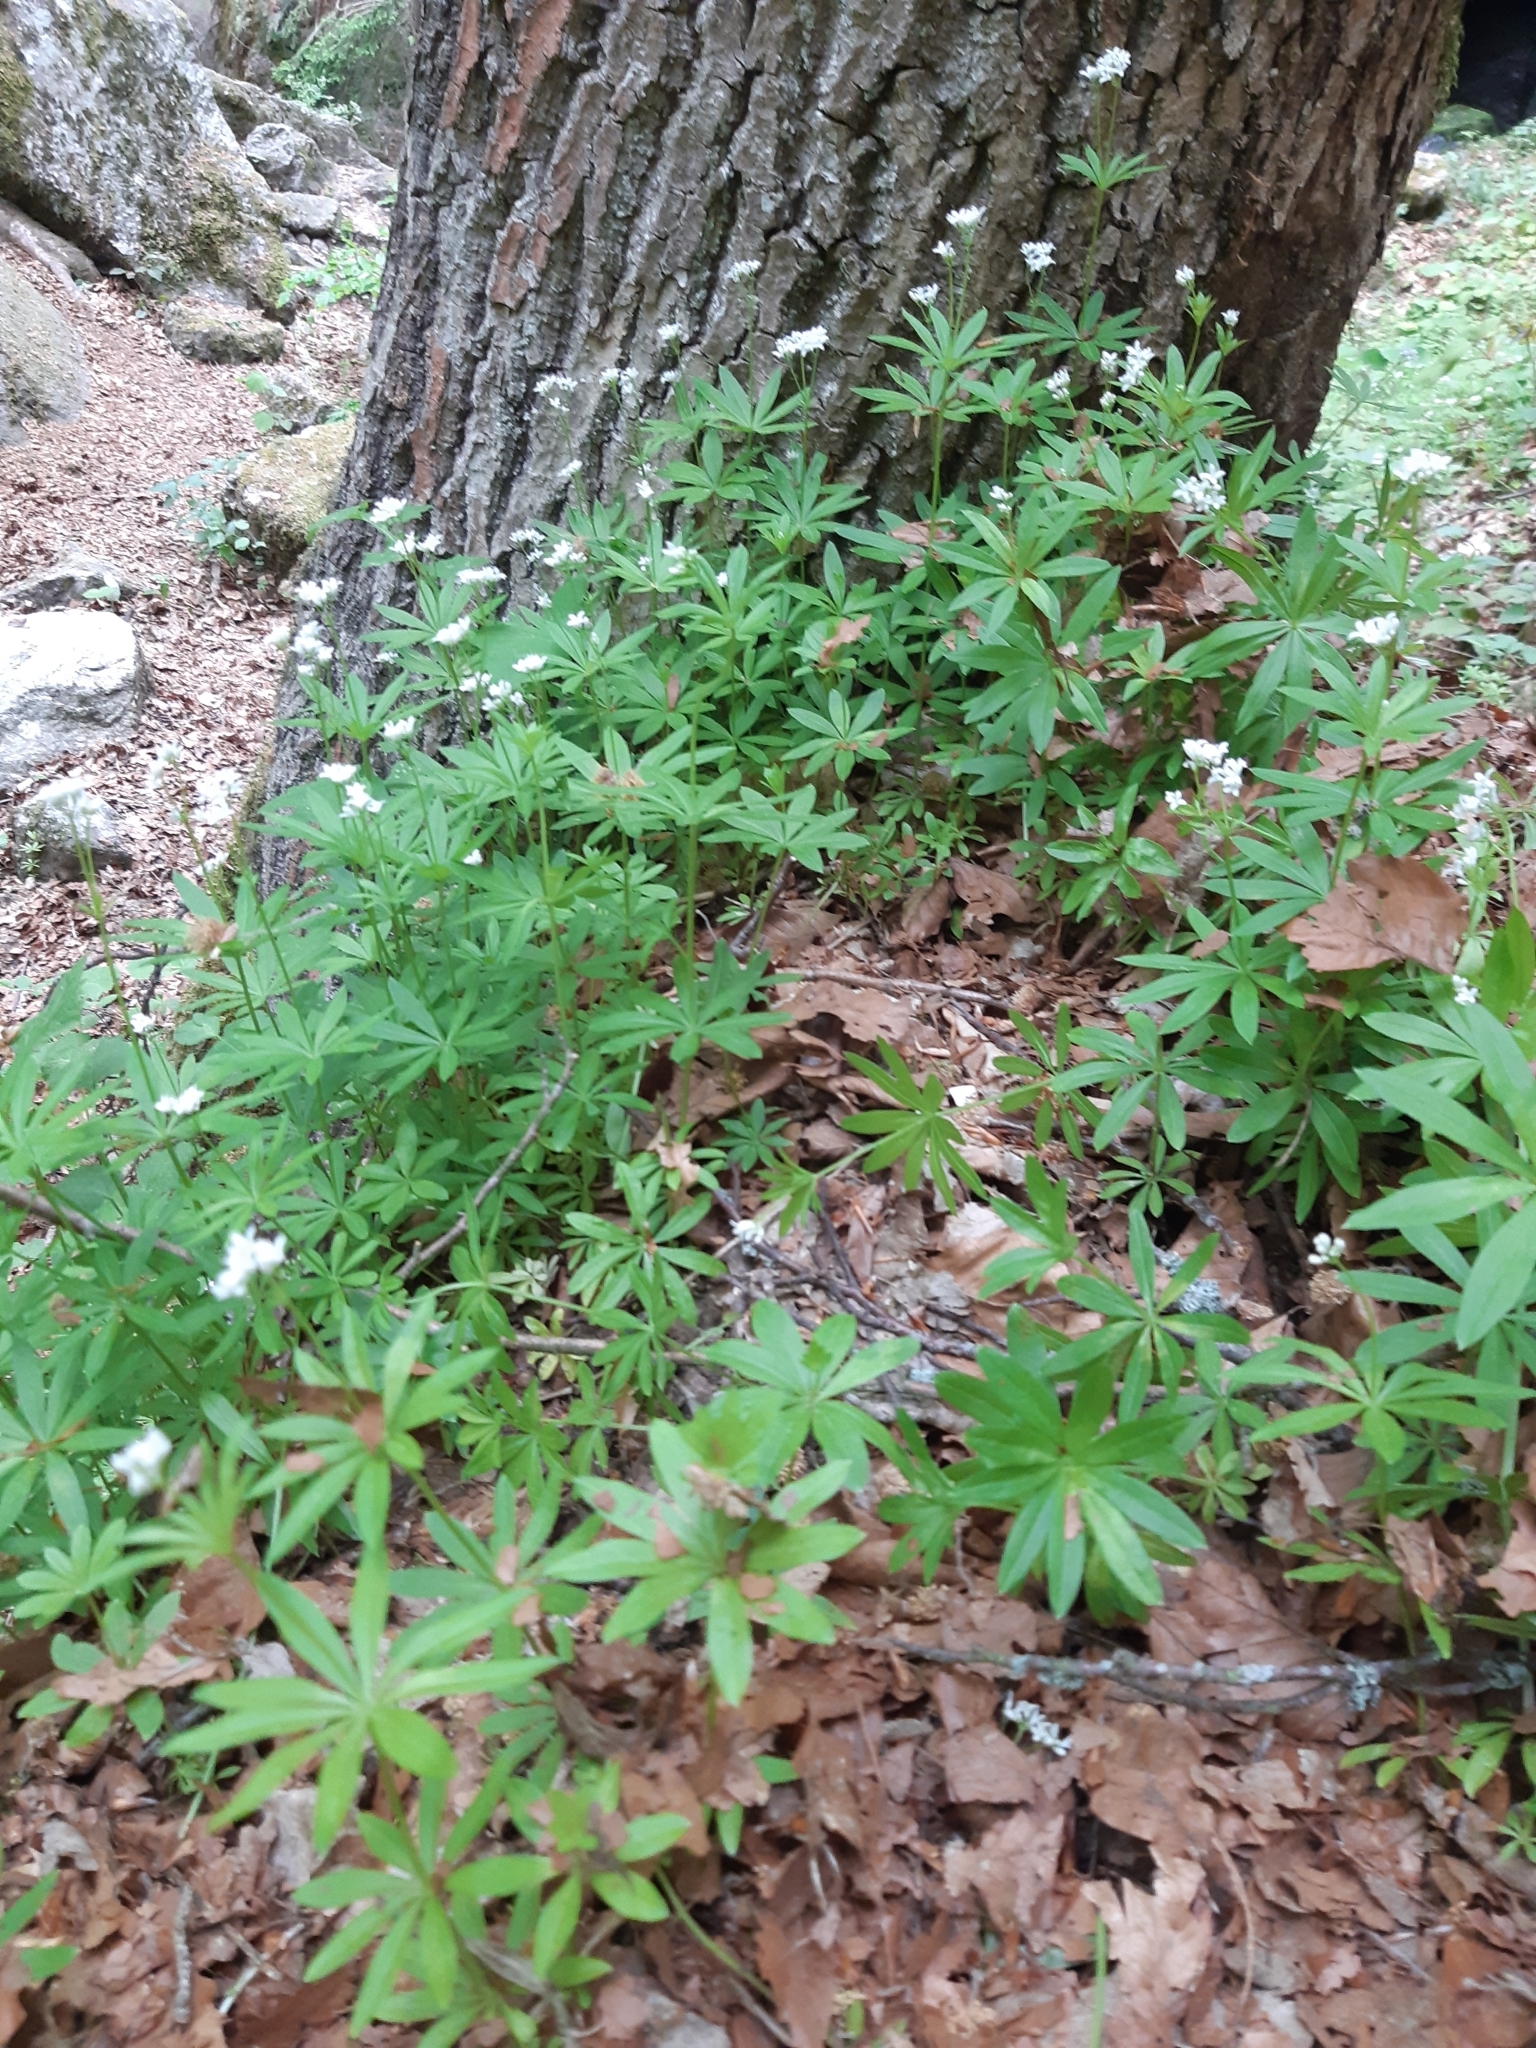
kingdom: Plantae
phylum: Tracheophyta
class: Magnoliopsida
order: Gentianales
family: Rubiaceae
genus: Galium
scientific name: Galium odoratum
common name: Sweet woodruff
